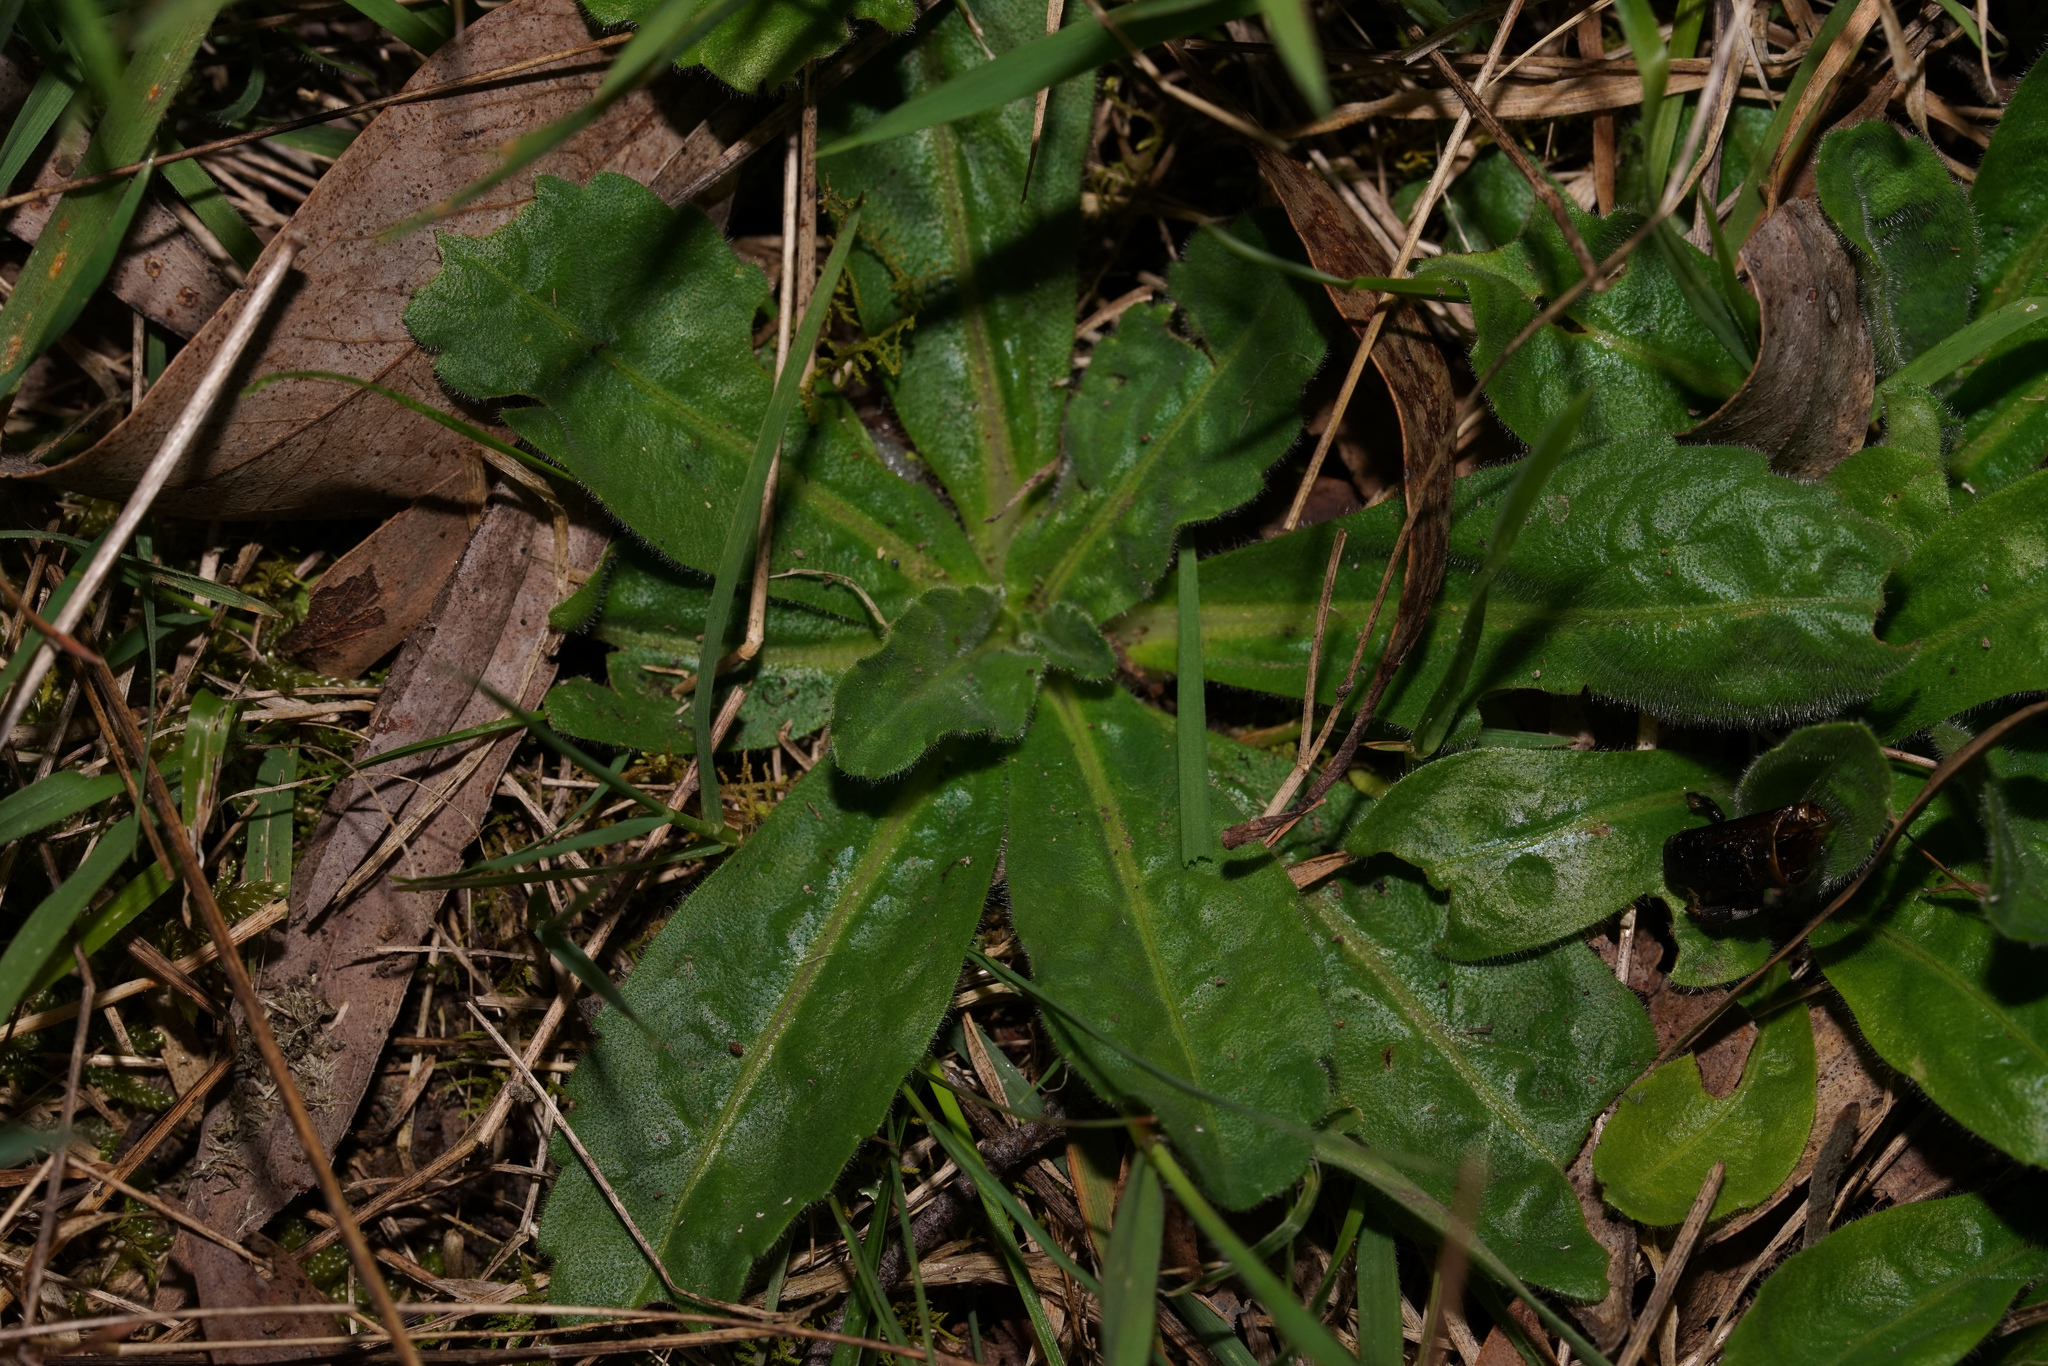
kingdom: Plantae
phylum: Tracheophyta
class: Magnoliopsida
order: Asterales
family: Asteraceae
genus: Solenogyne
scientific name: Solenogyne gunnii
